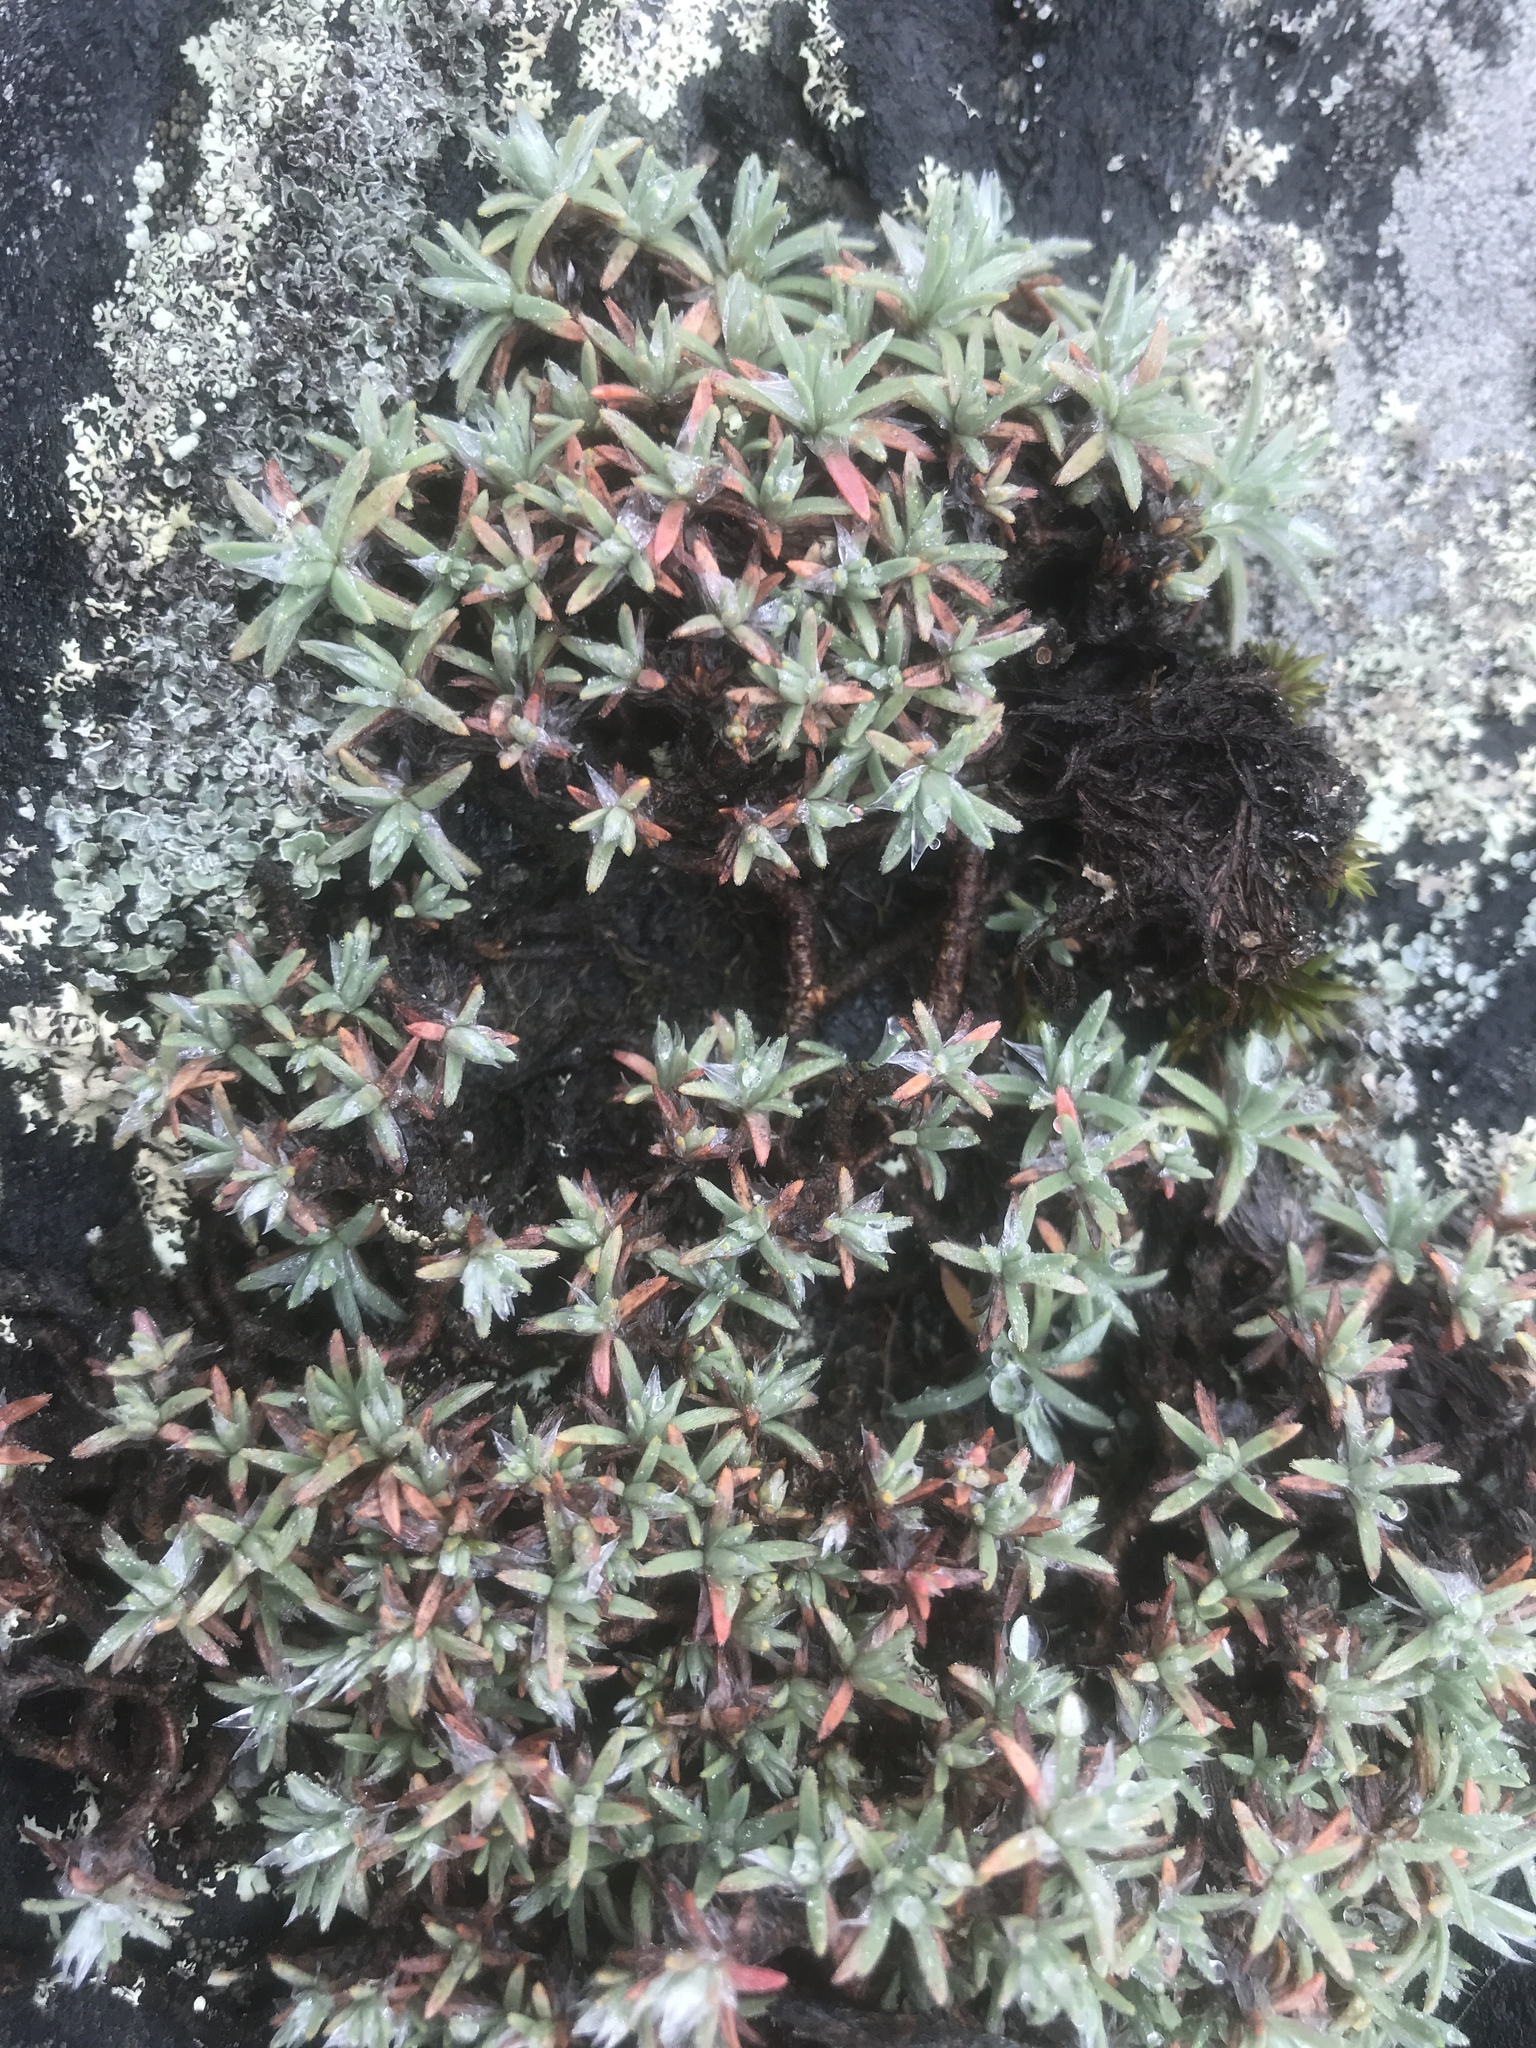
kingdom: Plantae
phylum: Tracheophyta
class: Magnoliopsida
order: Caryophyllales
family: Caryophyllaceae
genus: Paronychia
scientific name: Paronychia argyrocoma
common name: Silverling
